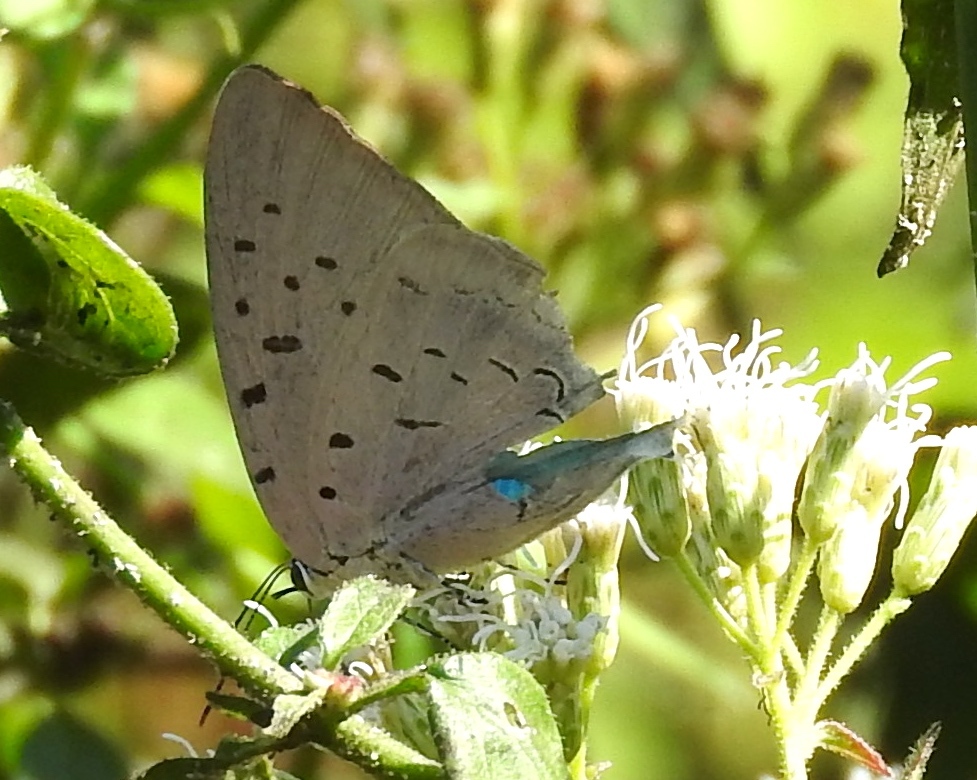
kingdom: Animalia
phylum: Arthropoda
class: Insecta
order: Lepidoptera
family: Lycaenidae
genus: Pseudolycaena
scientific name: Pseudolycaena damo
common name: Sky-blue hairstreak
